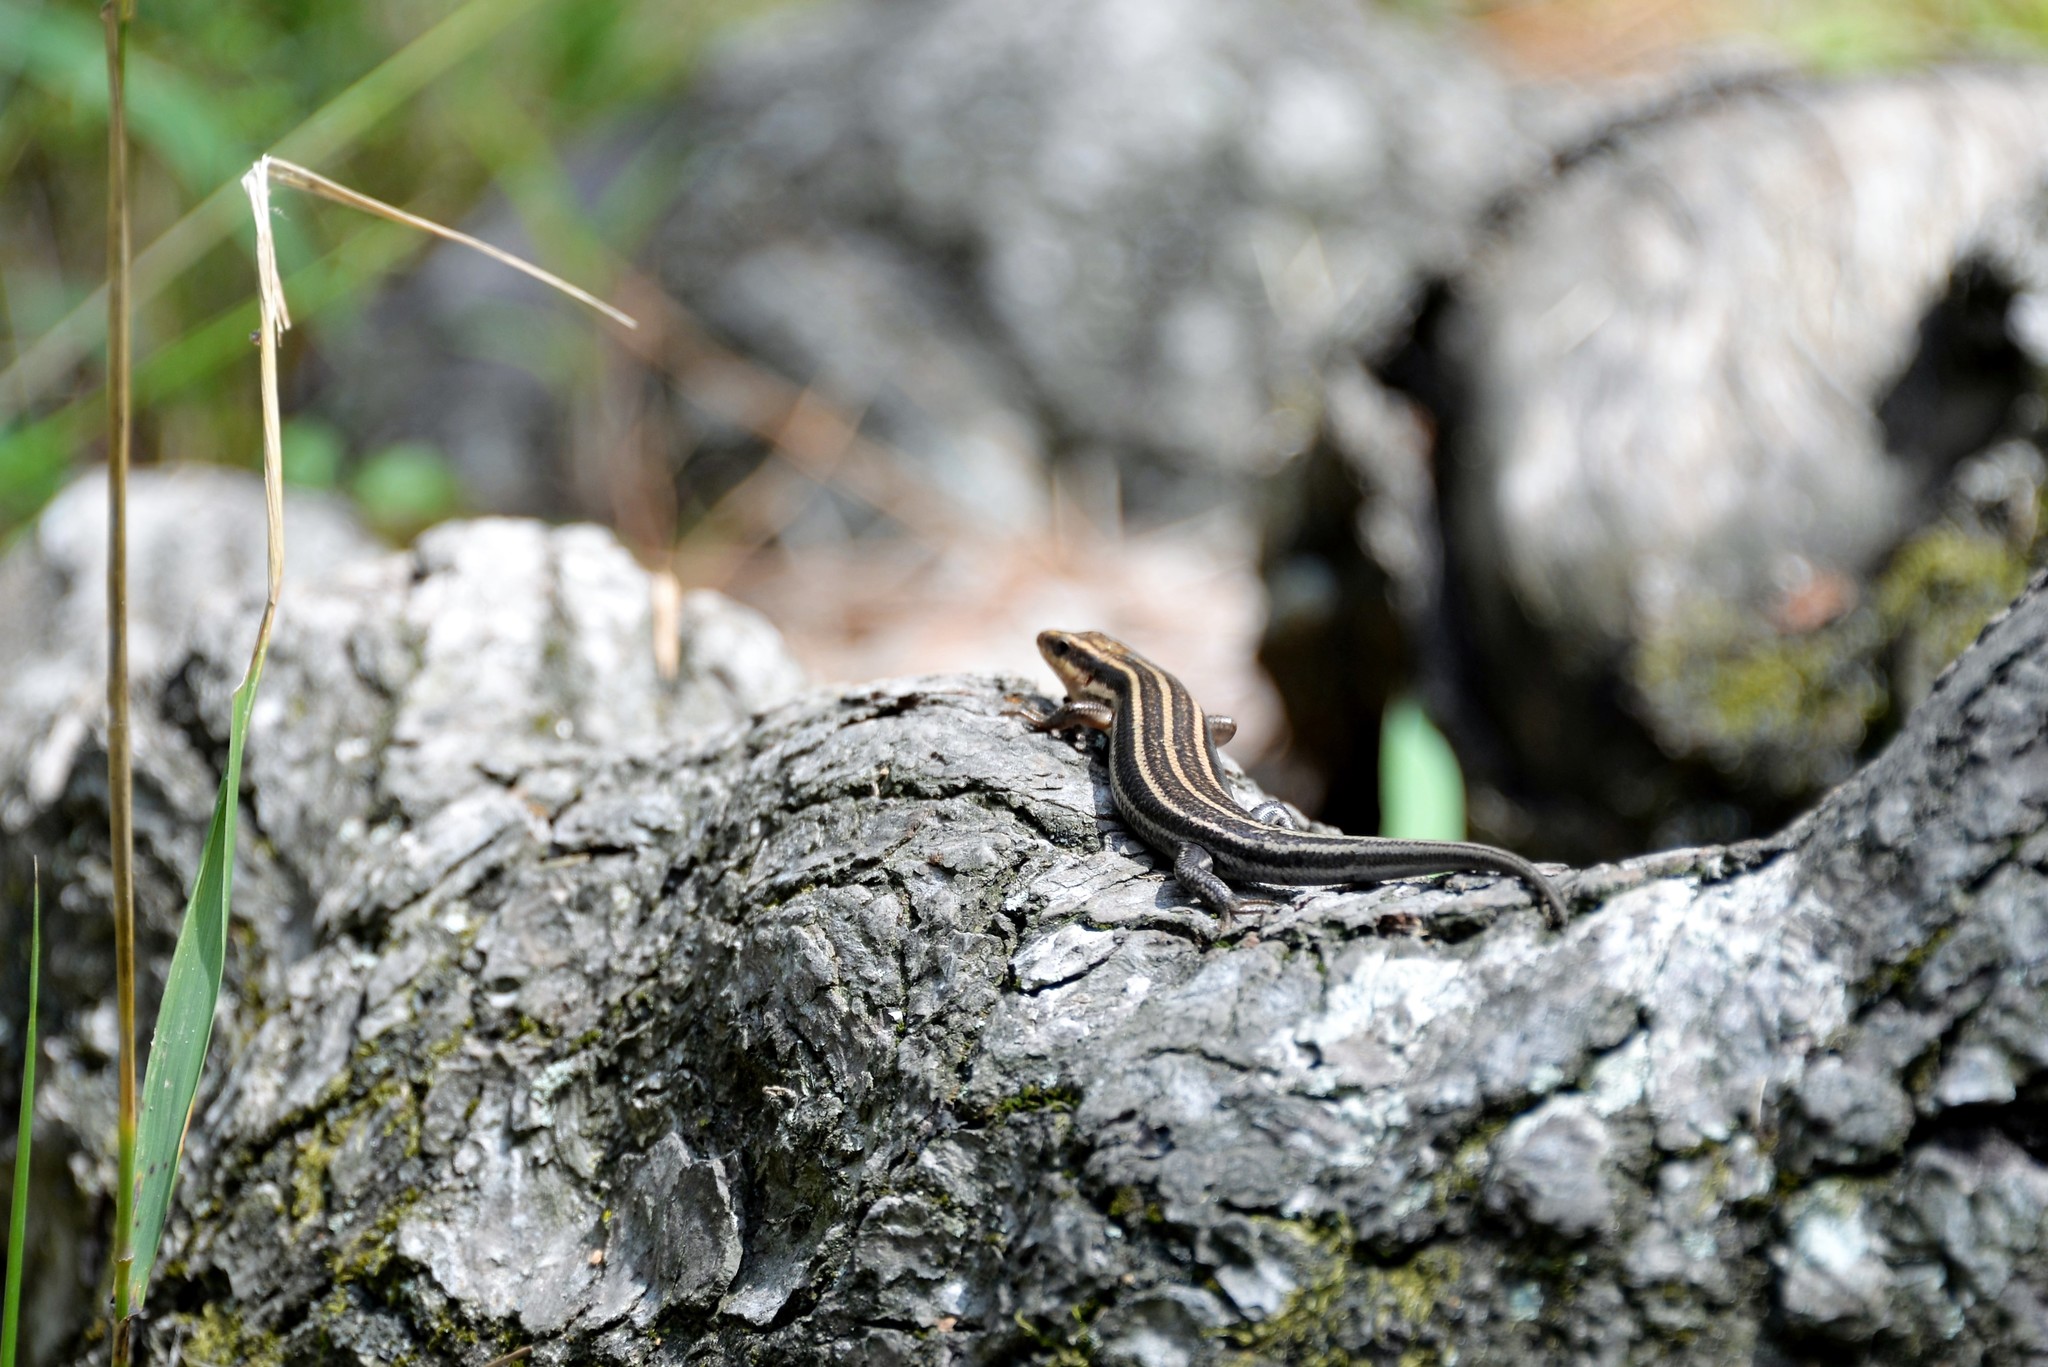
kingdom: Animalia
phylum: Chordata
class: Squamata
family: Scincidae
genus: Plestiodon
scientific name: Plestiodon fasciatus
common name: Five-lined skink
